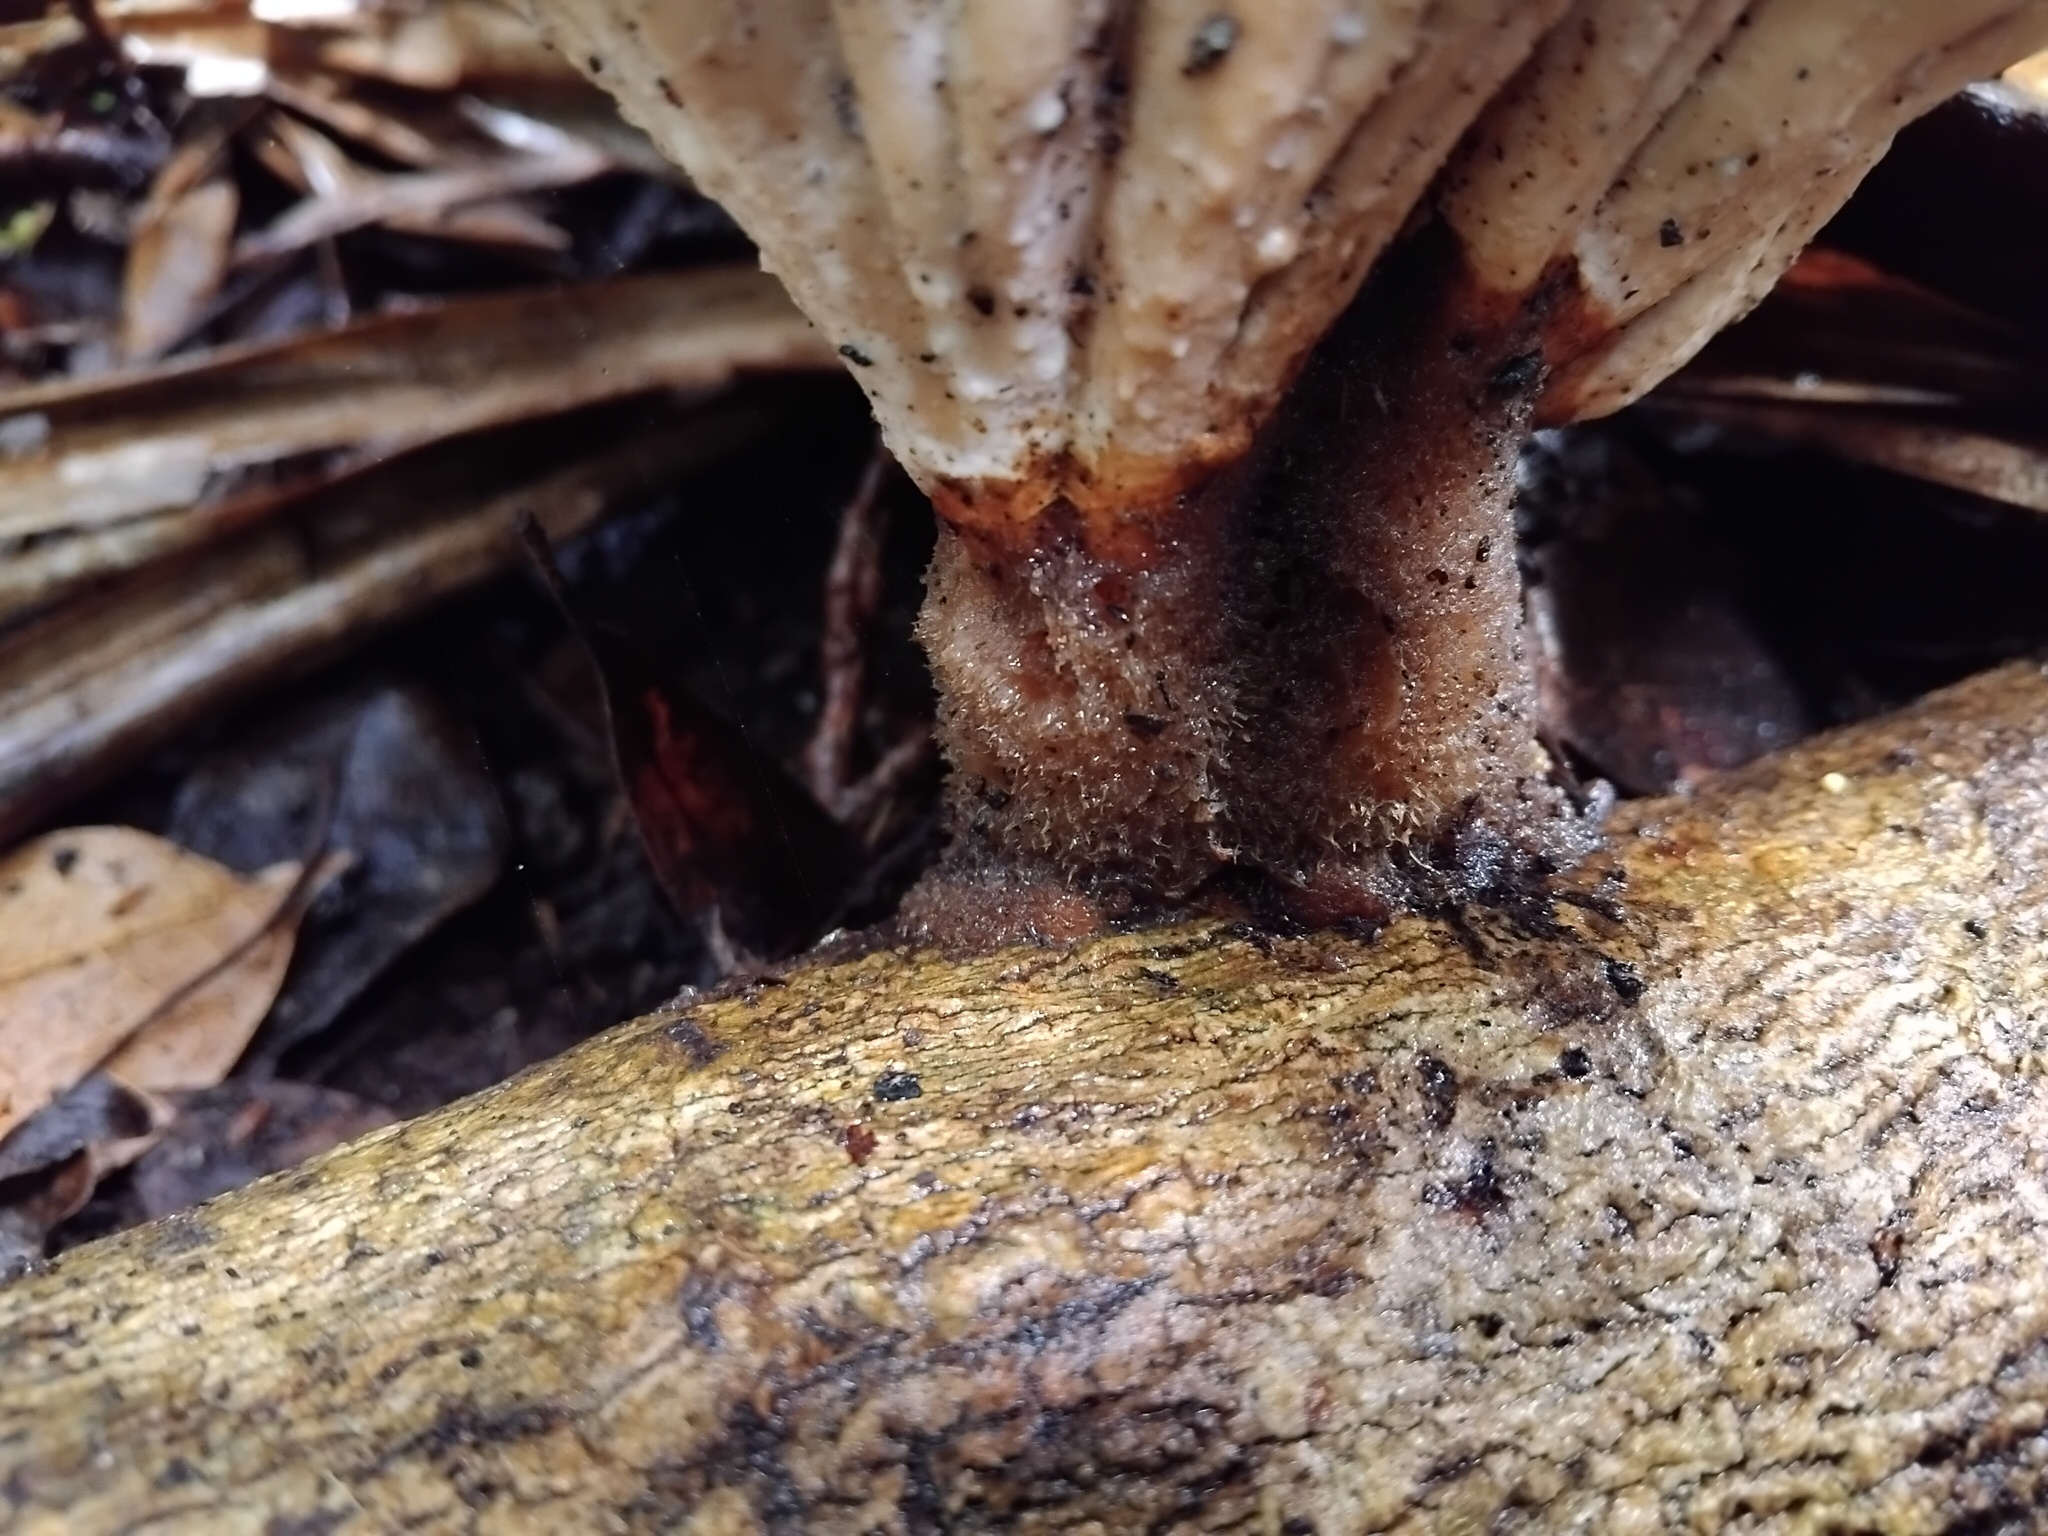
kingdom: Fungi
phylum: Basidiomycota
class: Agaricomycetes
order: Polyporales
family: Panaceae
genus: Cymatoderma
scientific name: Cymatoderma elegans
